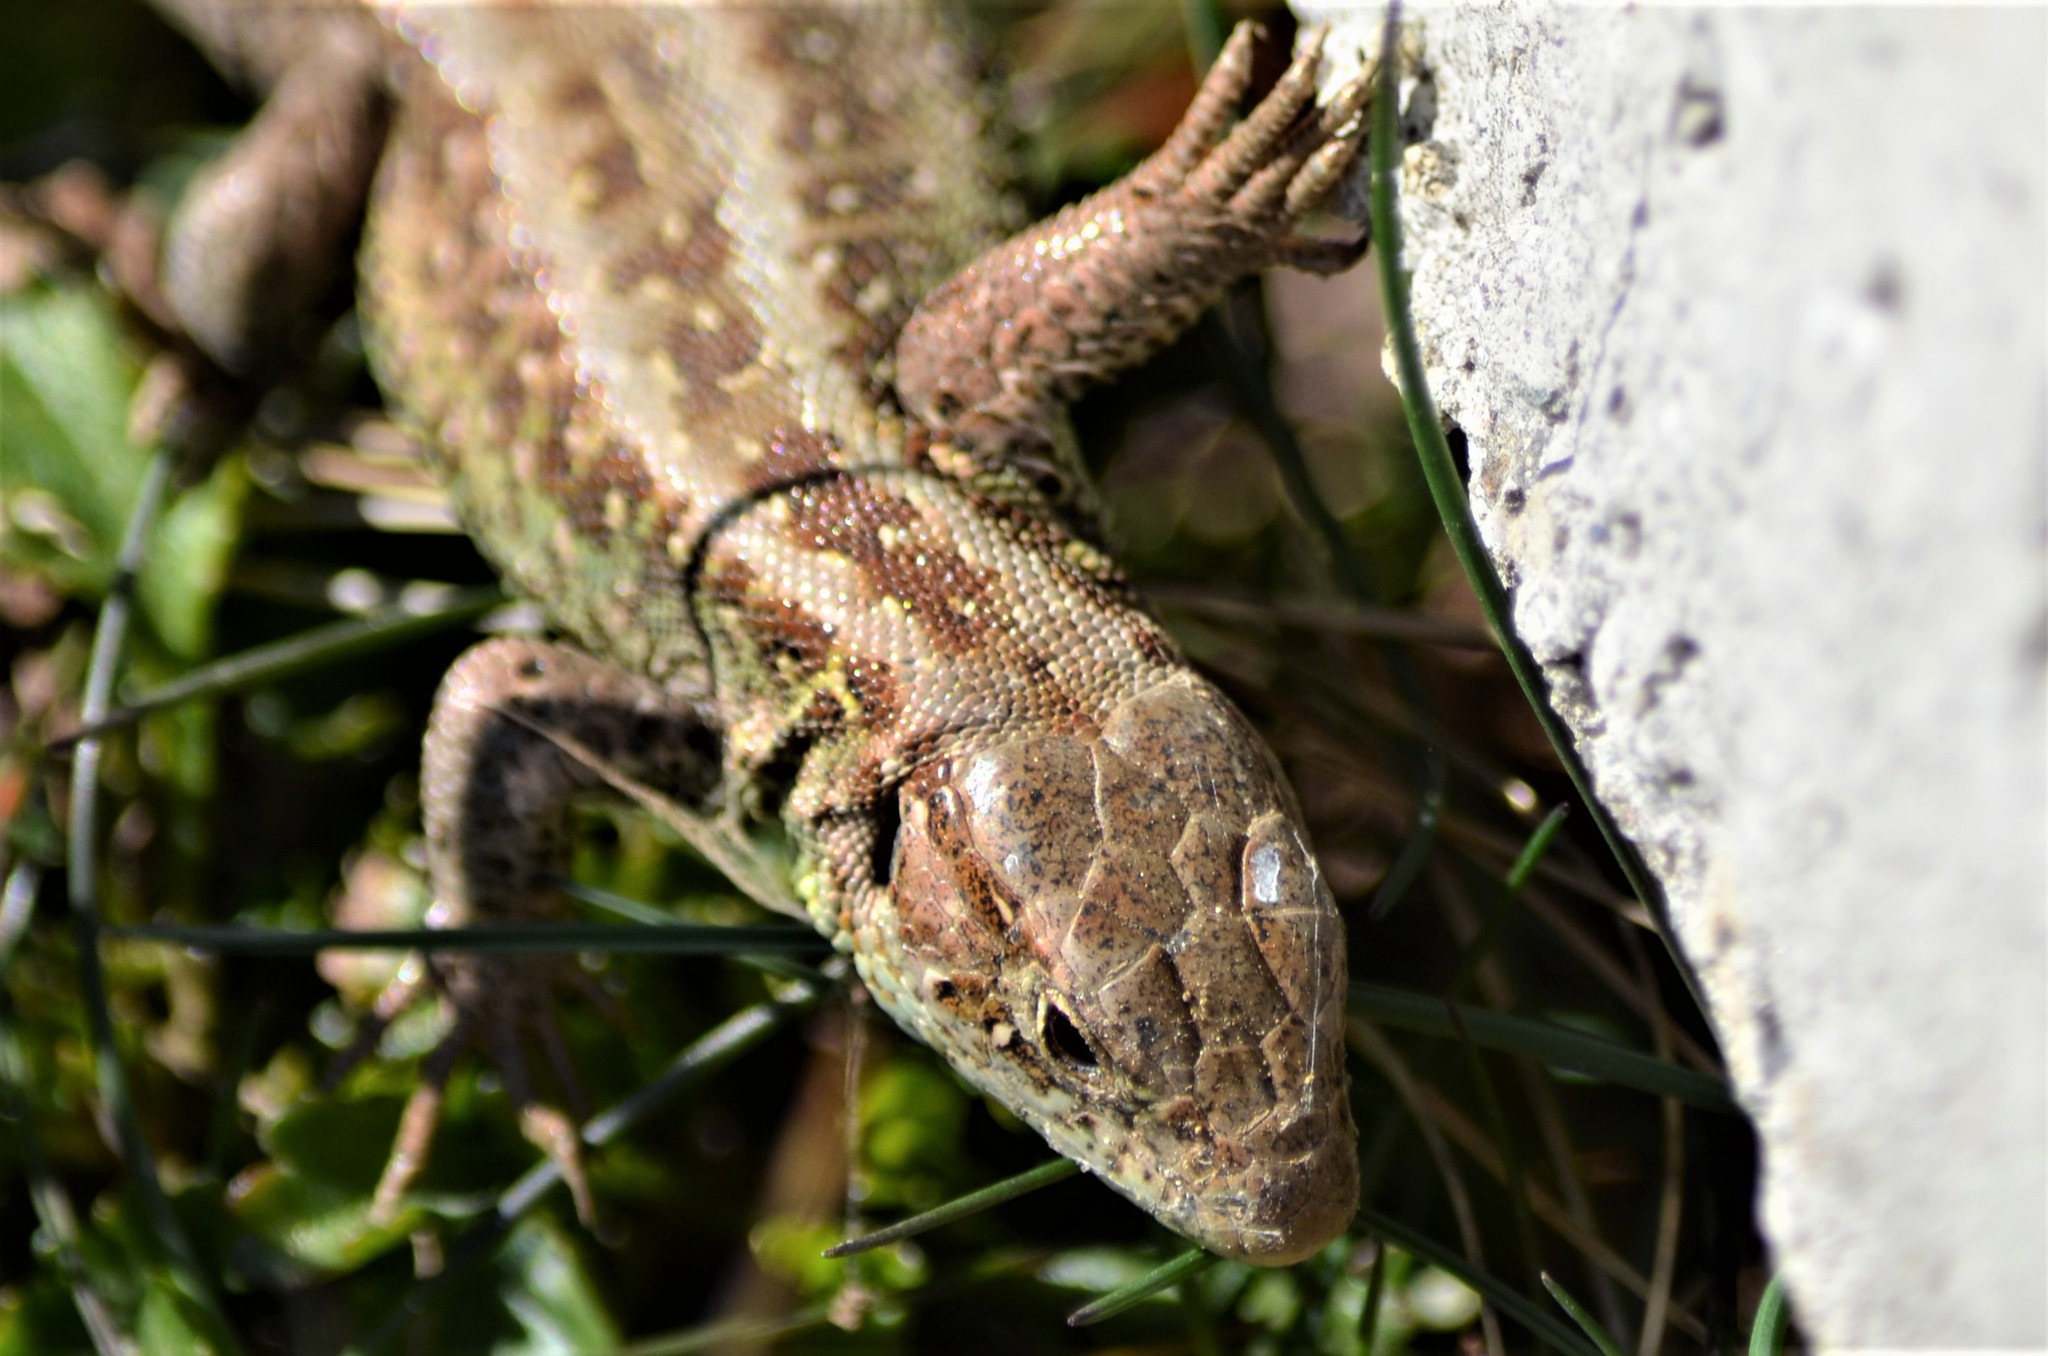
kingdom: Animalia
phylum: Chordata
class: Squamata
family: Lacertidae
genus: Lacerta
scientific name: Lacerta agilis
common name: Sand lizard
